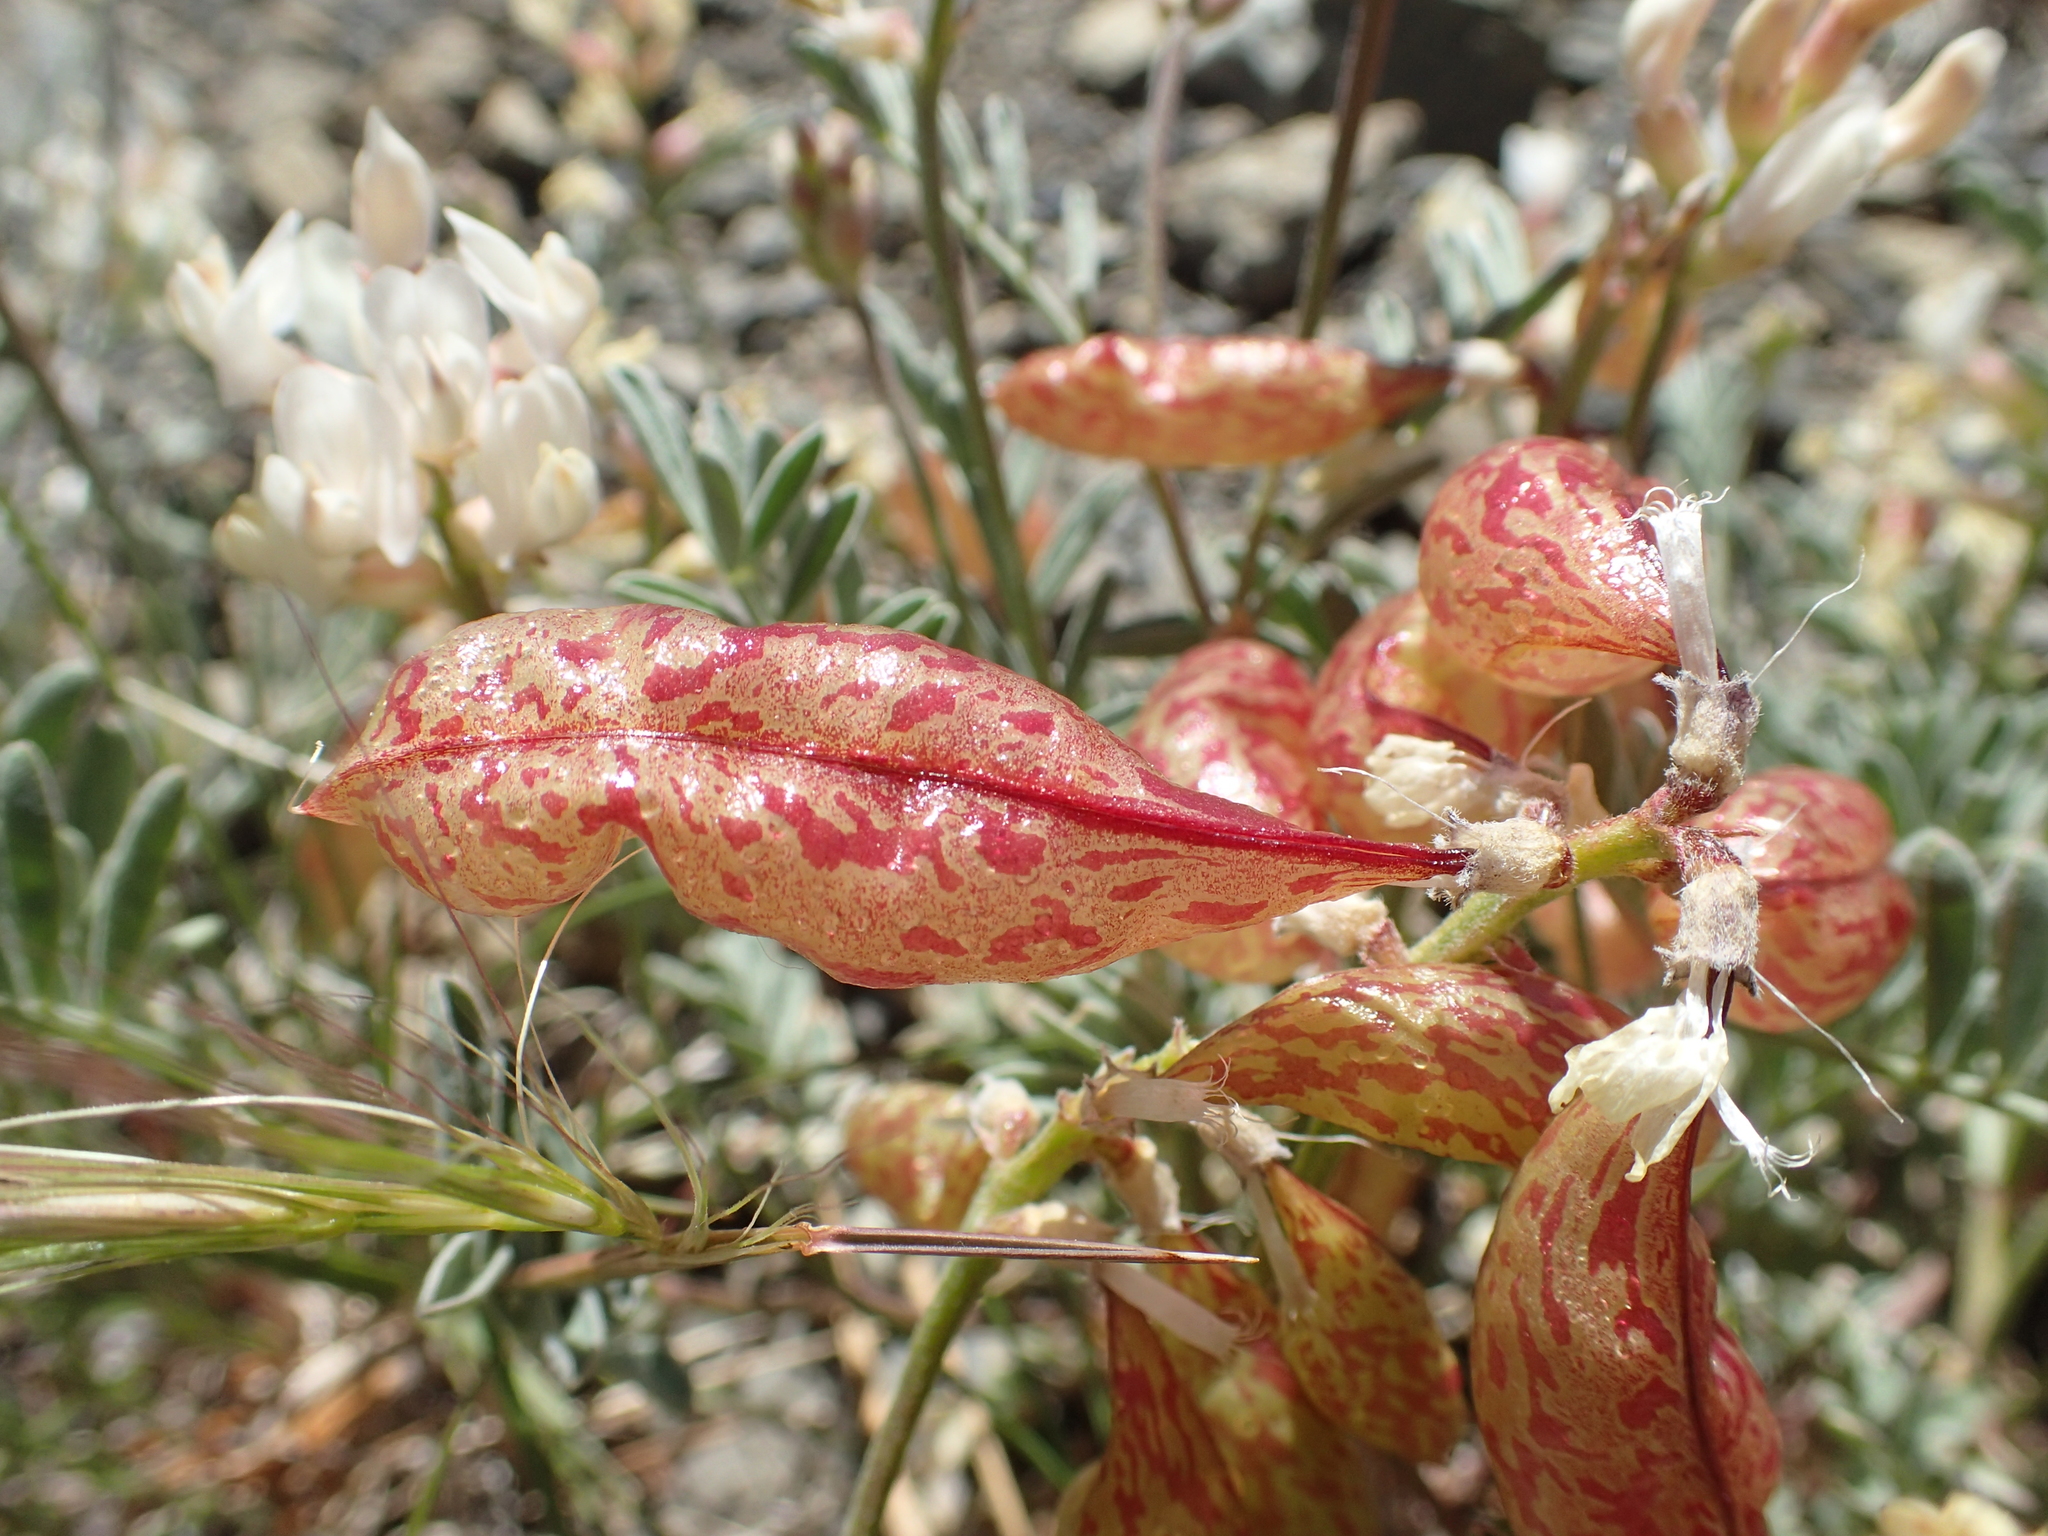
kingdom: Plantae
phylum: Tracheophyta
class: Magnoliopsida
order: Fabales
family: Fabaceae
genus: Astragalus
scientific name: Astragalus whitneyi
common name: Balloonpod milkvetch
